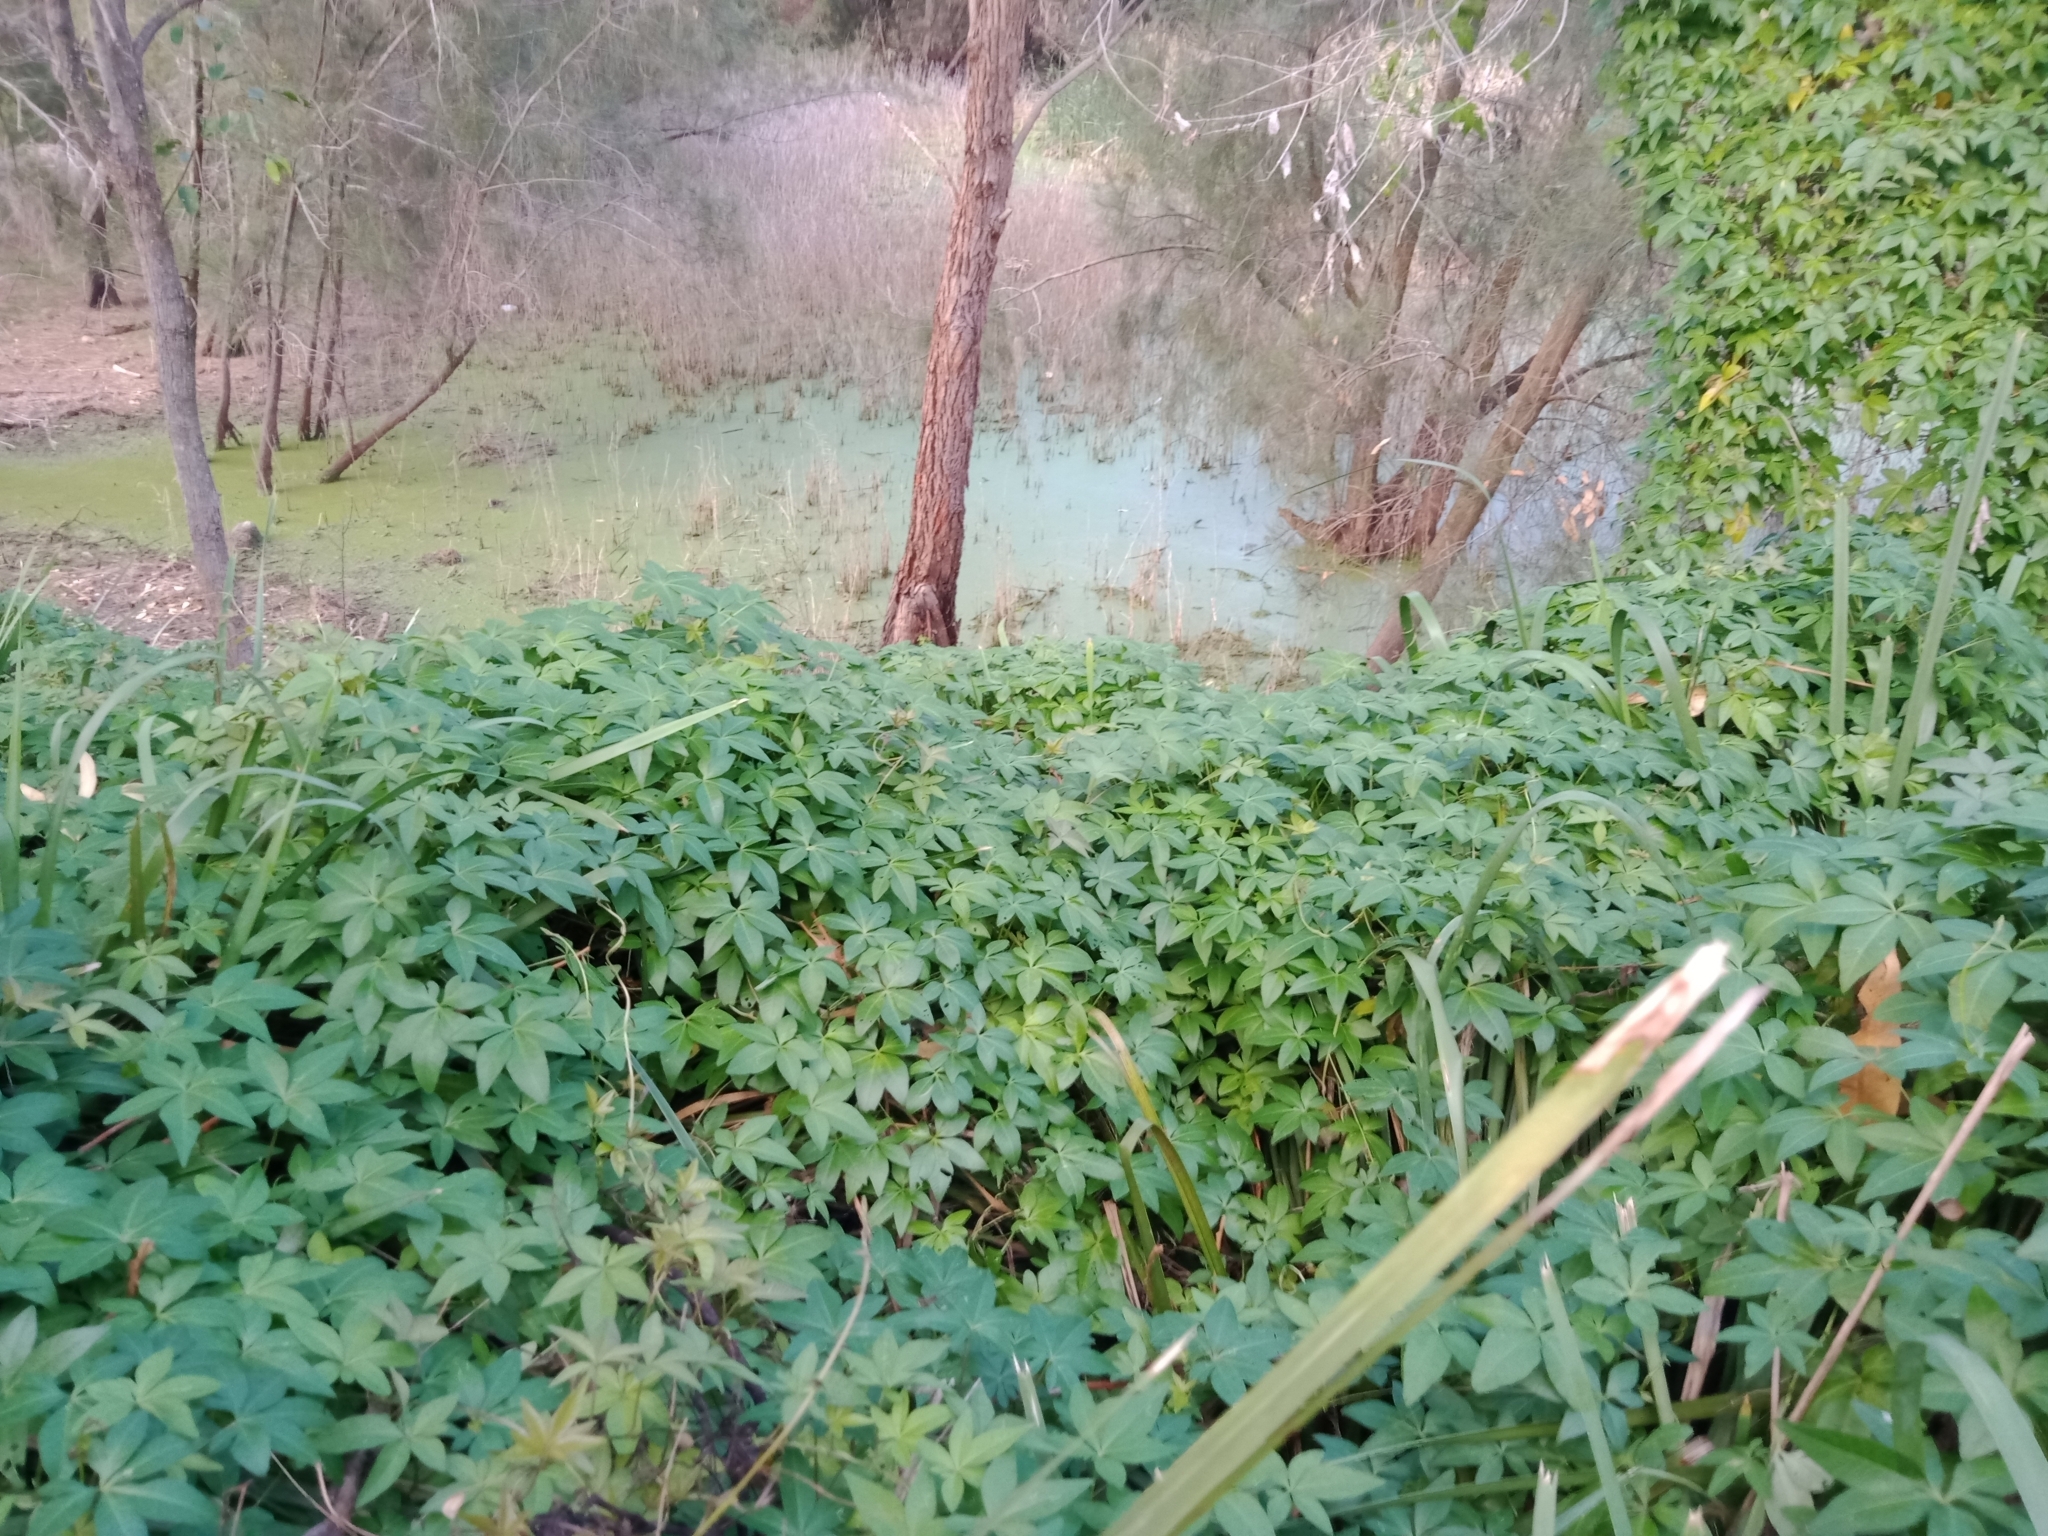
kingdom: Plantae
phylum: Tracheophyta
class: Magnoliopsida
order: Solanales
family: Convolvulaceae
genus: Ipomoea
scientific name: Ipomoea cairica
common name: Mile a minute vine
